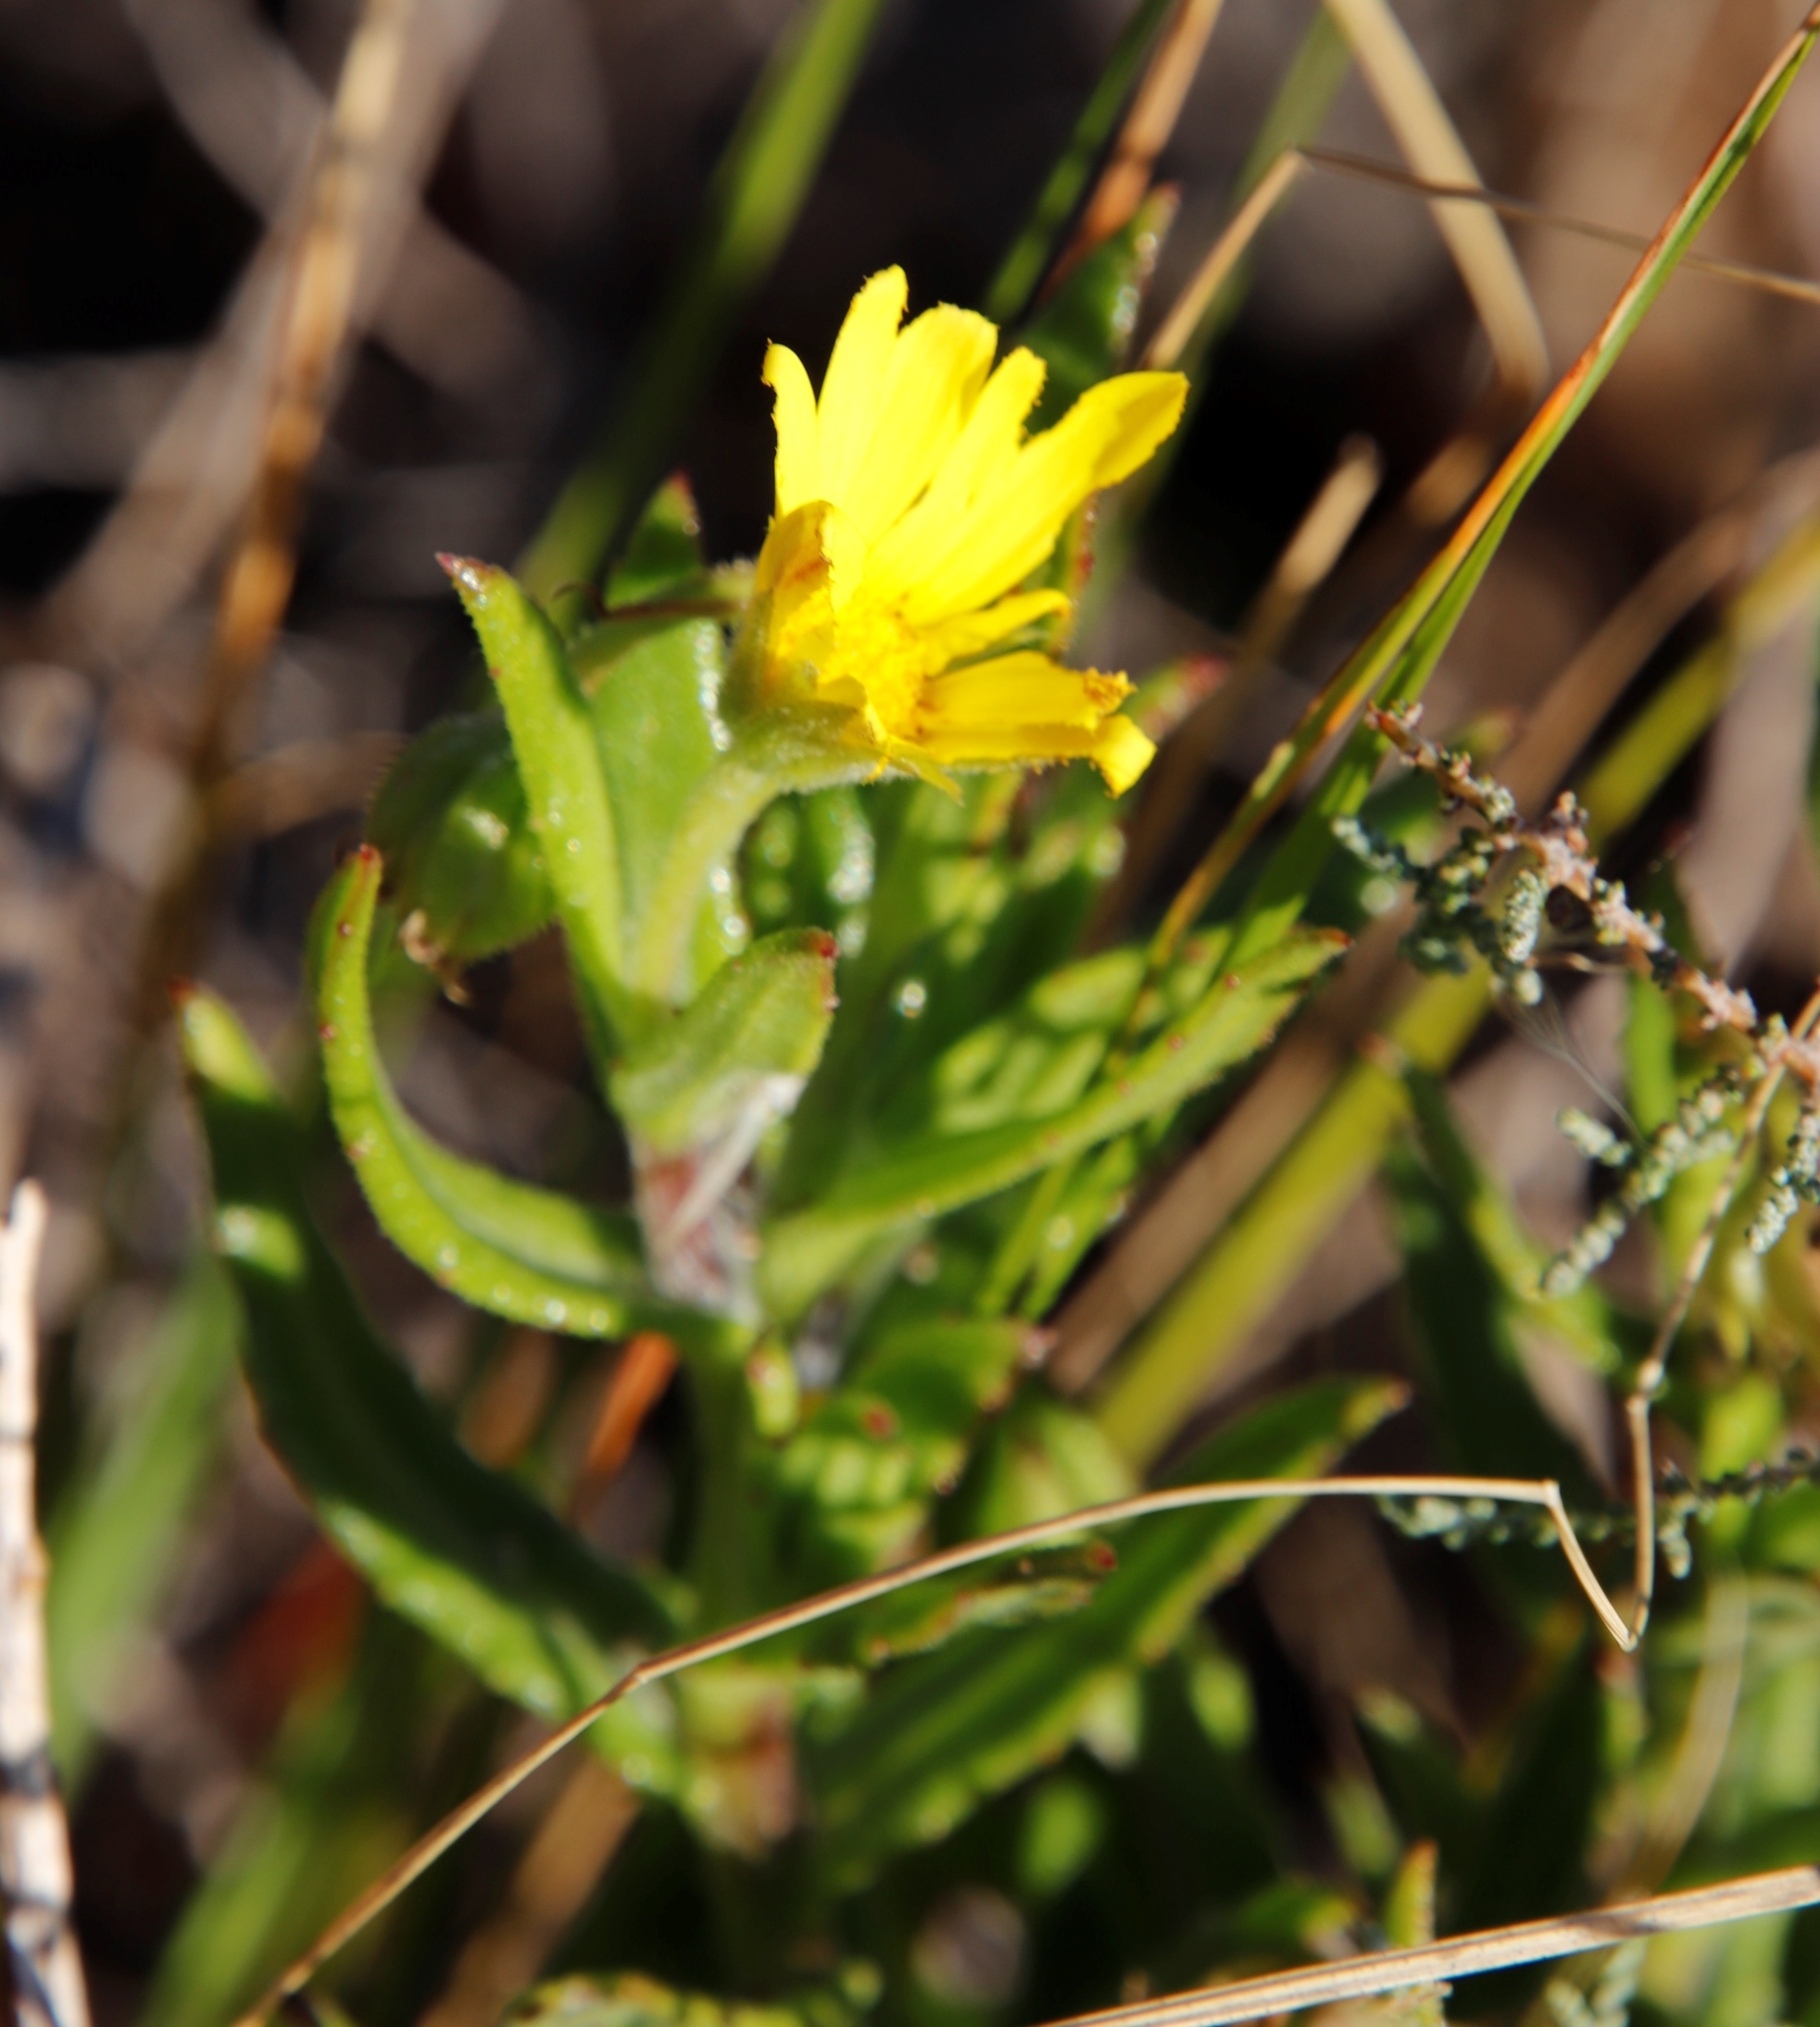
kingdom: Plantae
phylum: Tracheophyta
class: Magnoliopsida
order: Asterales
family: Asteraceae
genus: Osteospermum
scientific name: Osteospermum ilicifolium
